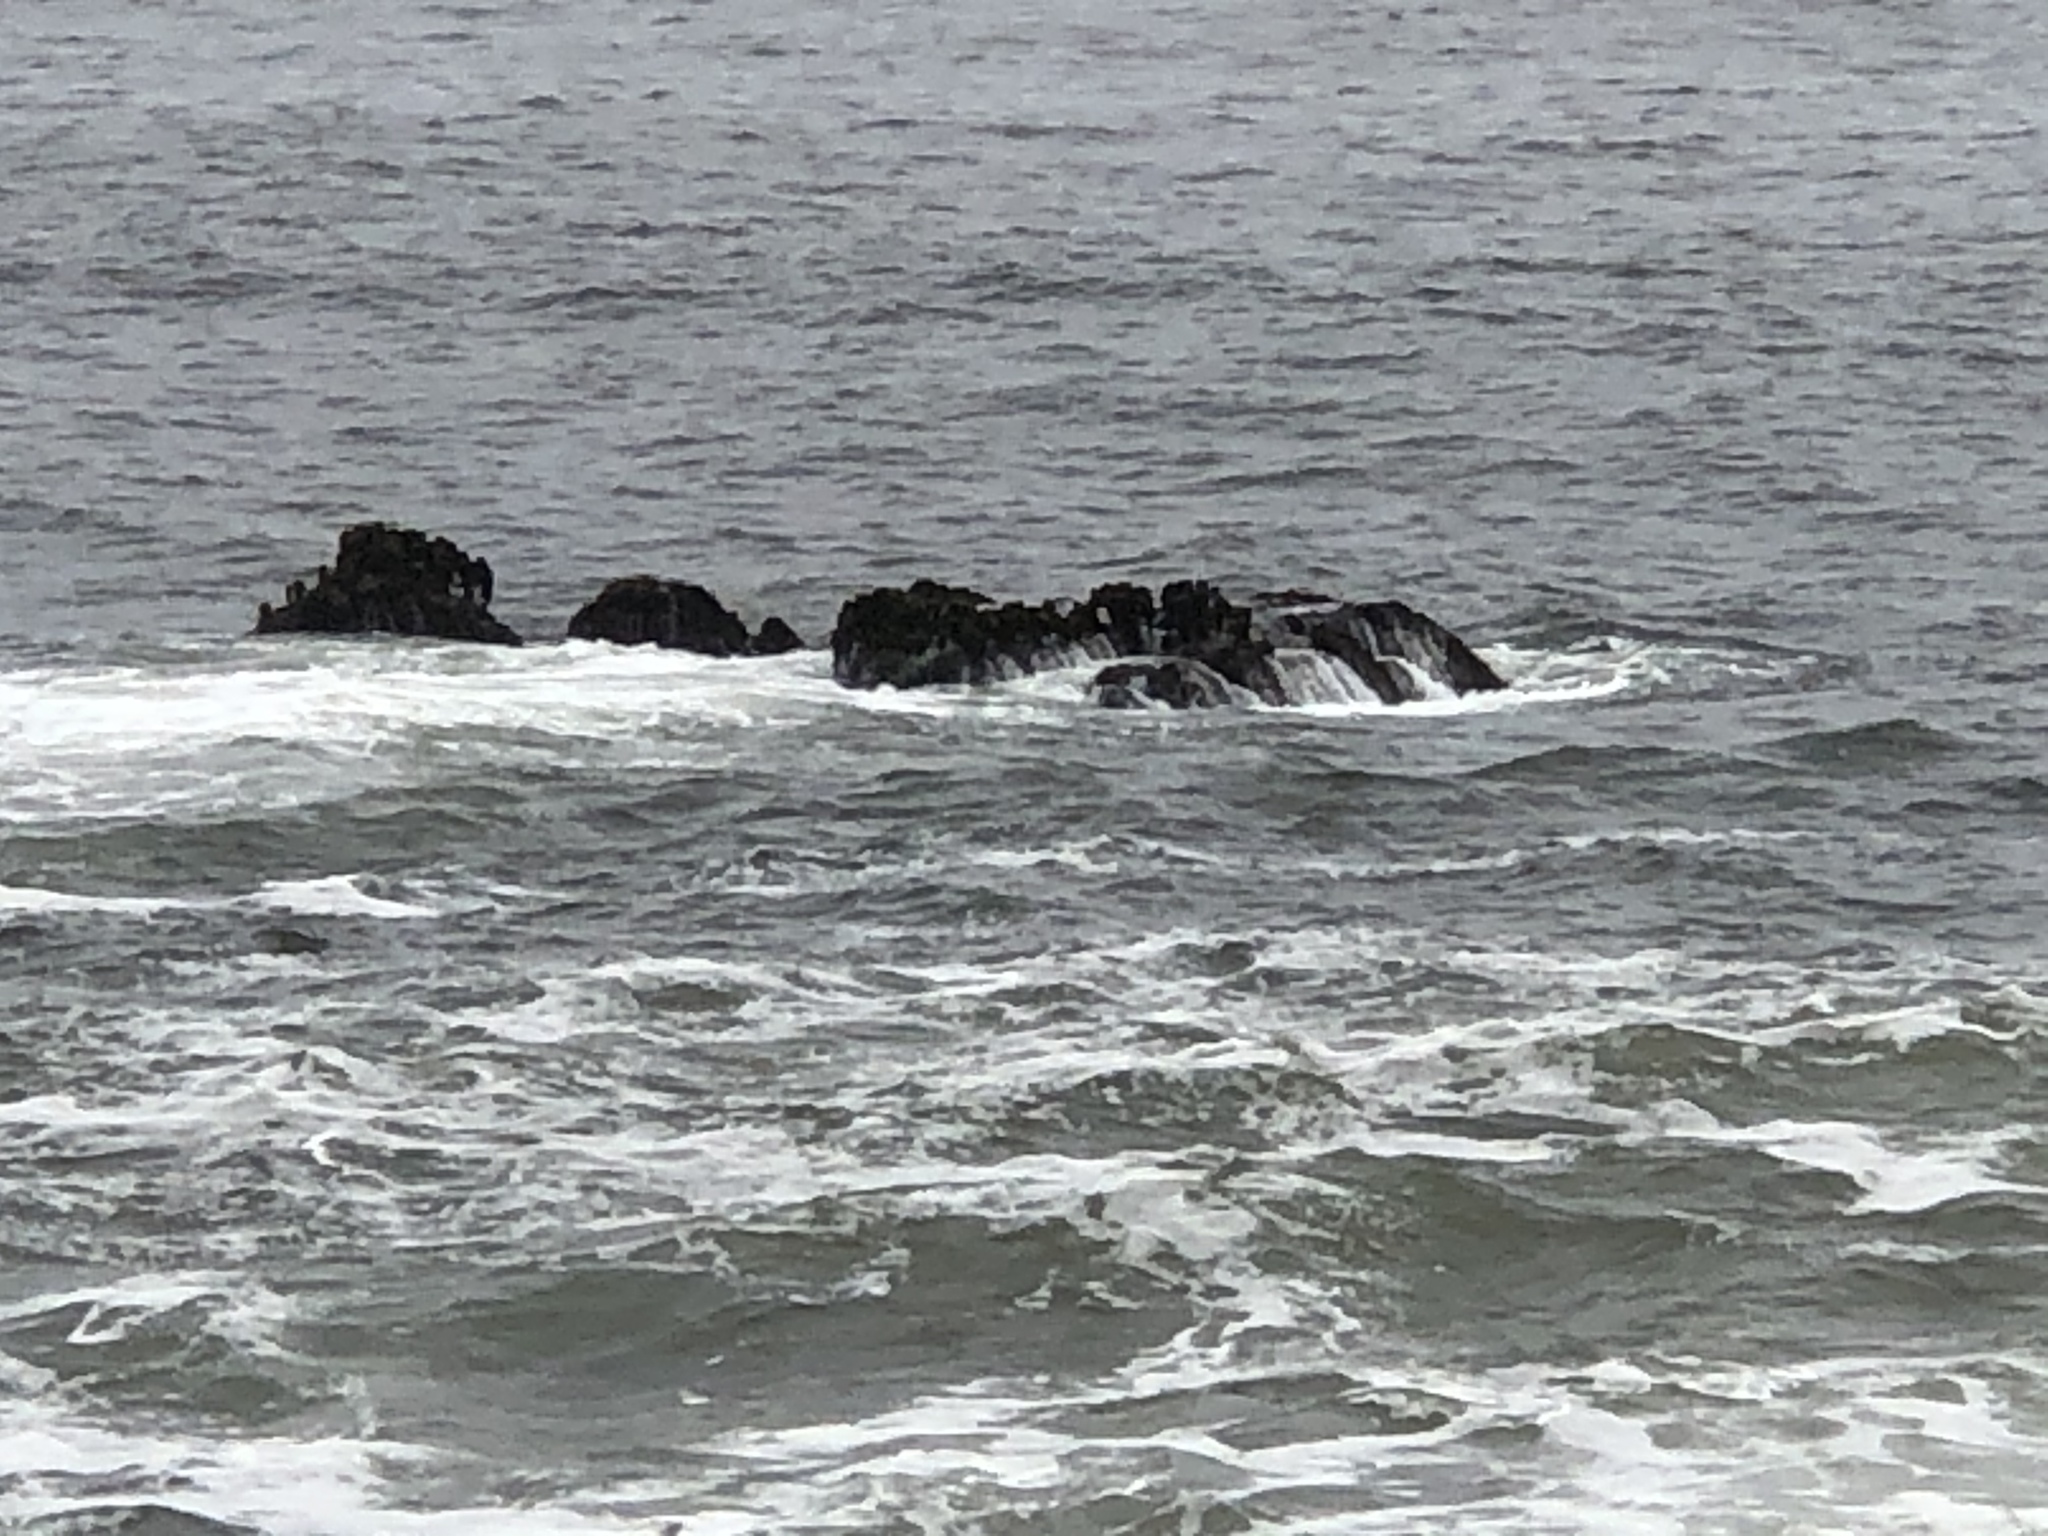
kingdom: Chromista
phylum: Ochrophyta
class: Phaeophyceae
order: Laminariales
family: Laminariaceae
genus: Postelsia
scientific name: Postelsia palmiformis
